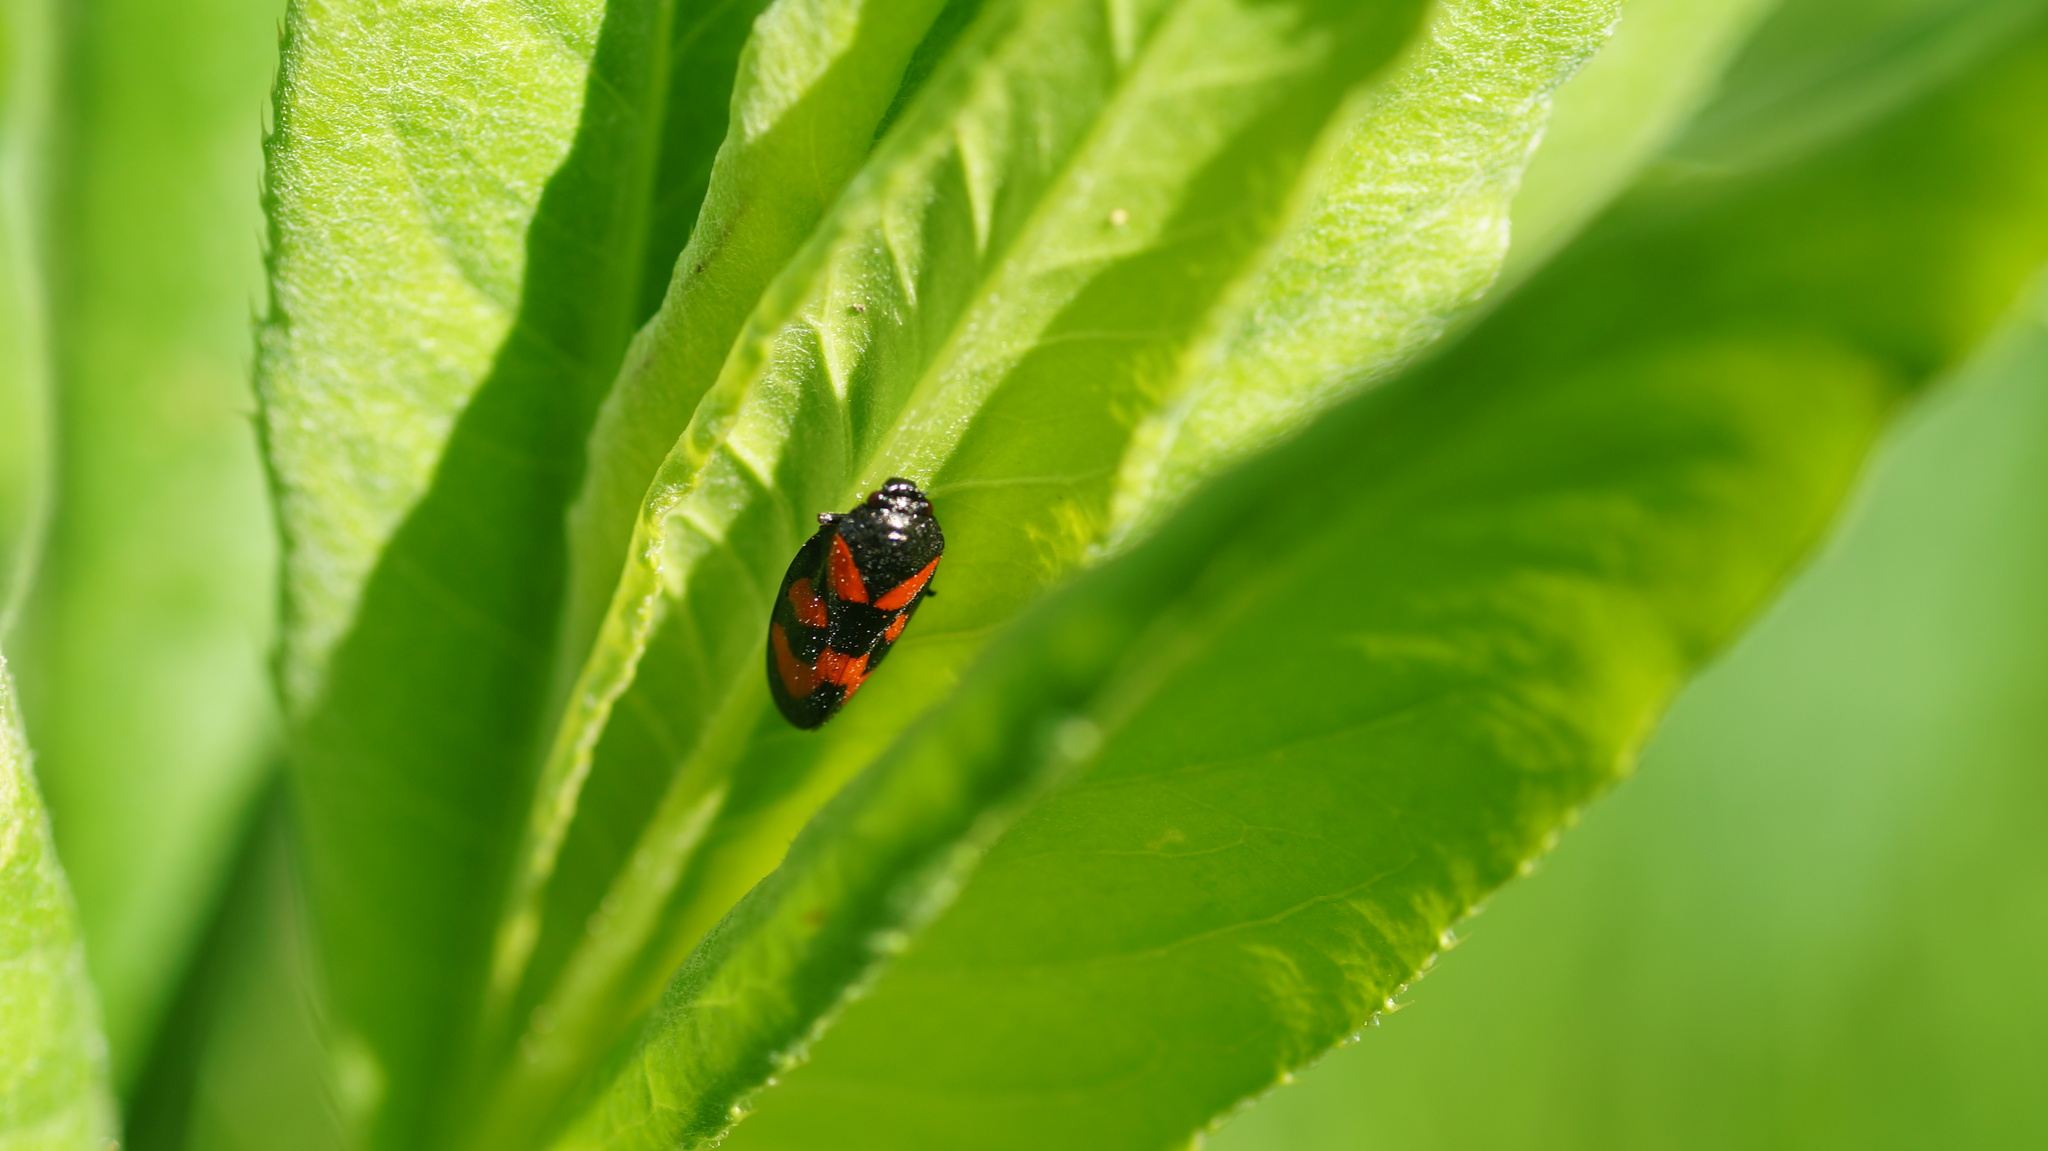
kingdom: Animalia
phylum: Arthropoda
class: Insecta
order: Hemiptera
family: Cercopidae
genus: Cercopis
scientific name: Cercopis vulnerata
